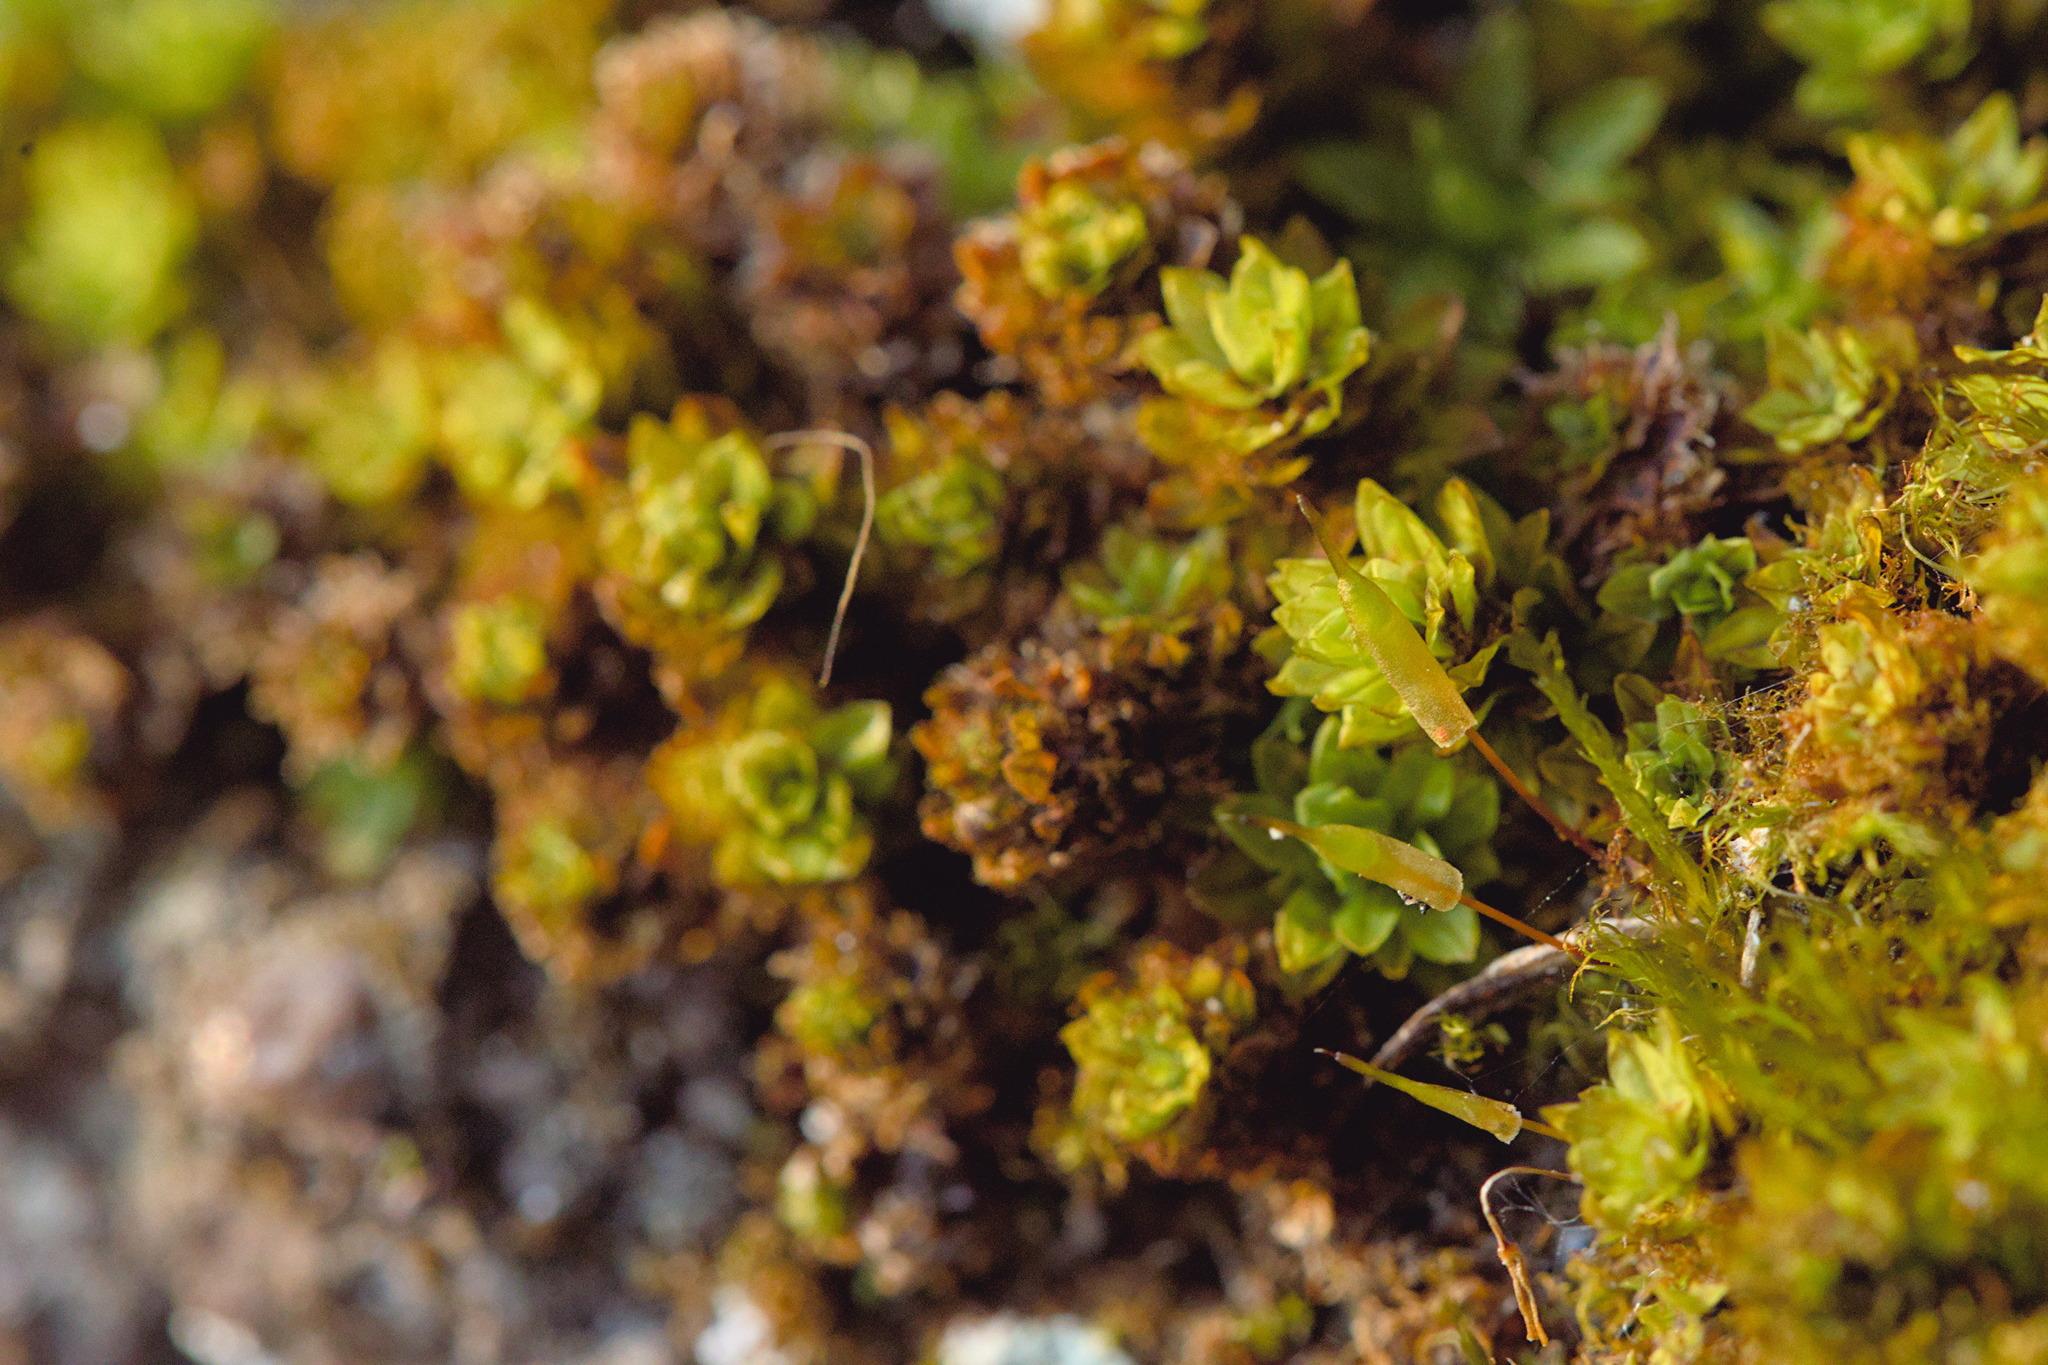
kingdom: Plantae
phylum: Bryophyta
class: Bryopsida
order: Encalyptales
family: Encalyptaceae
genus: Encalypta
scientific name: Encalypta streptocarpa
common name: Spiral extinguisher-moss
